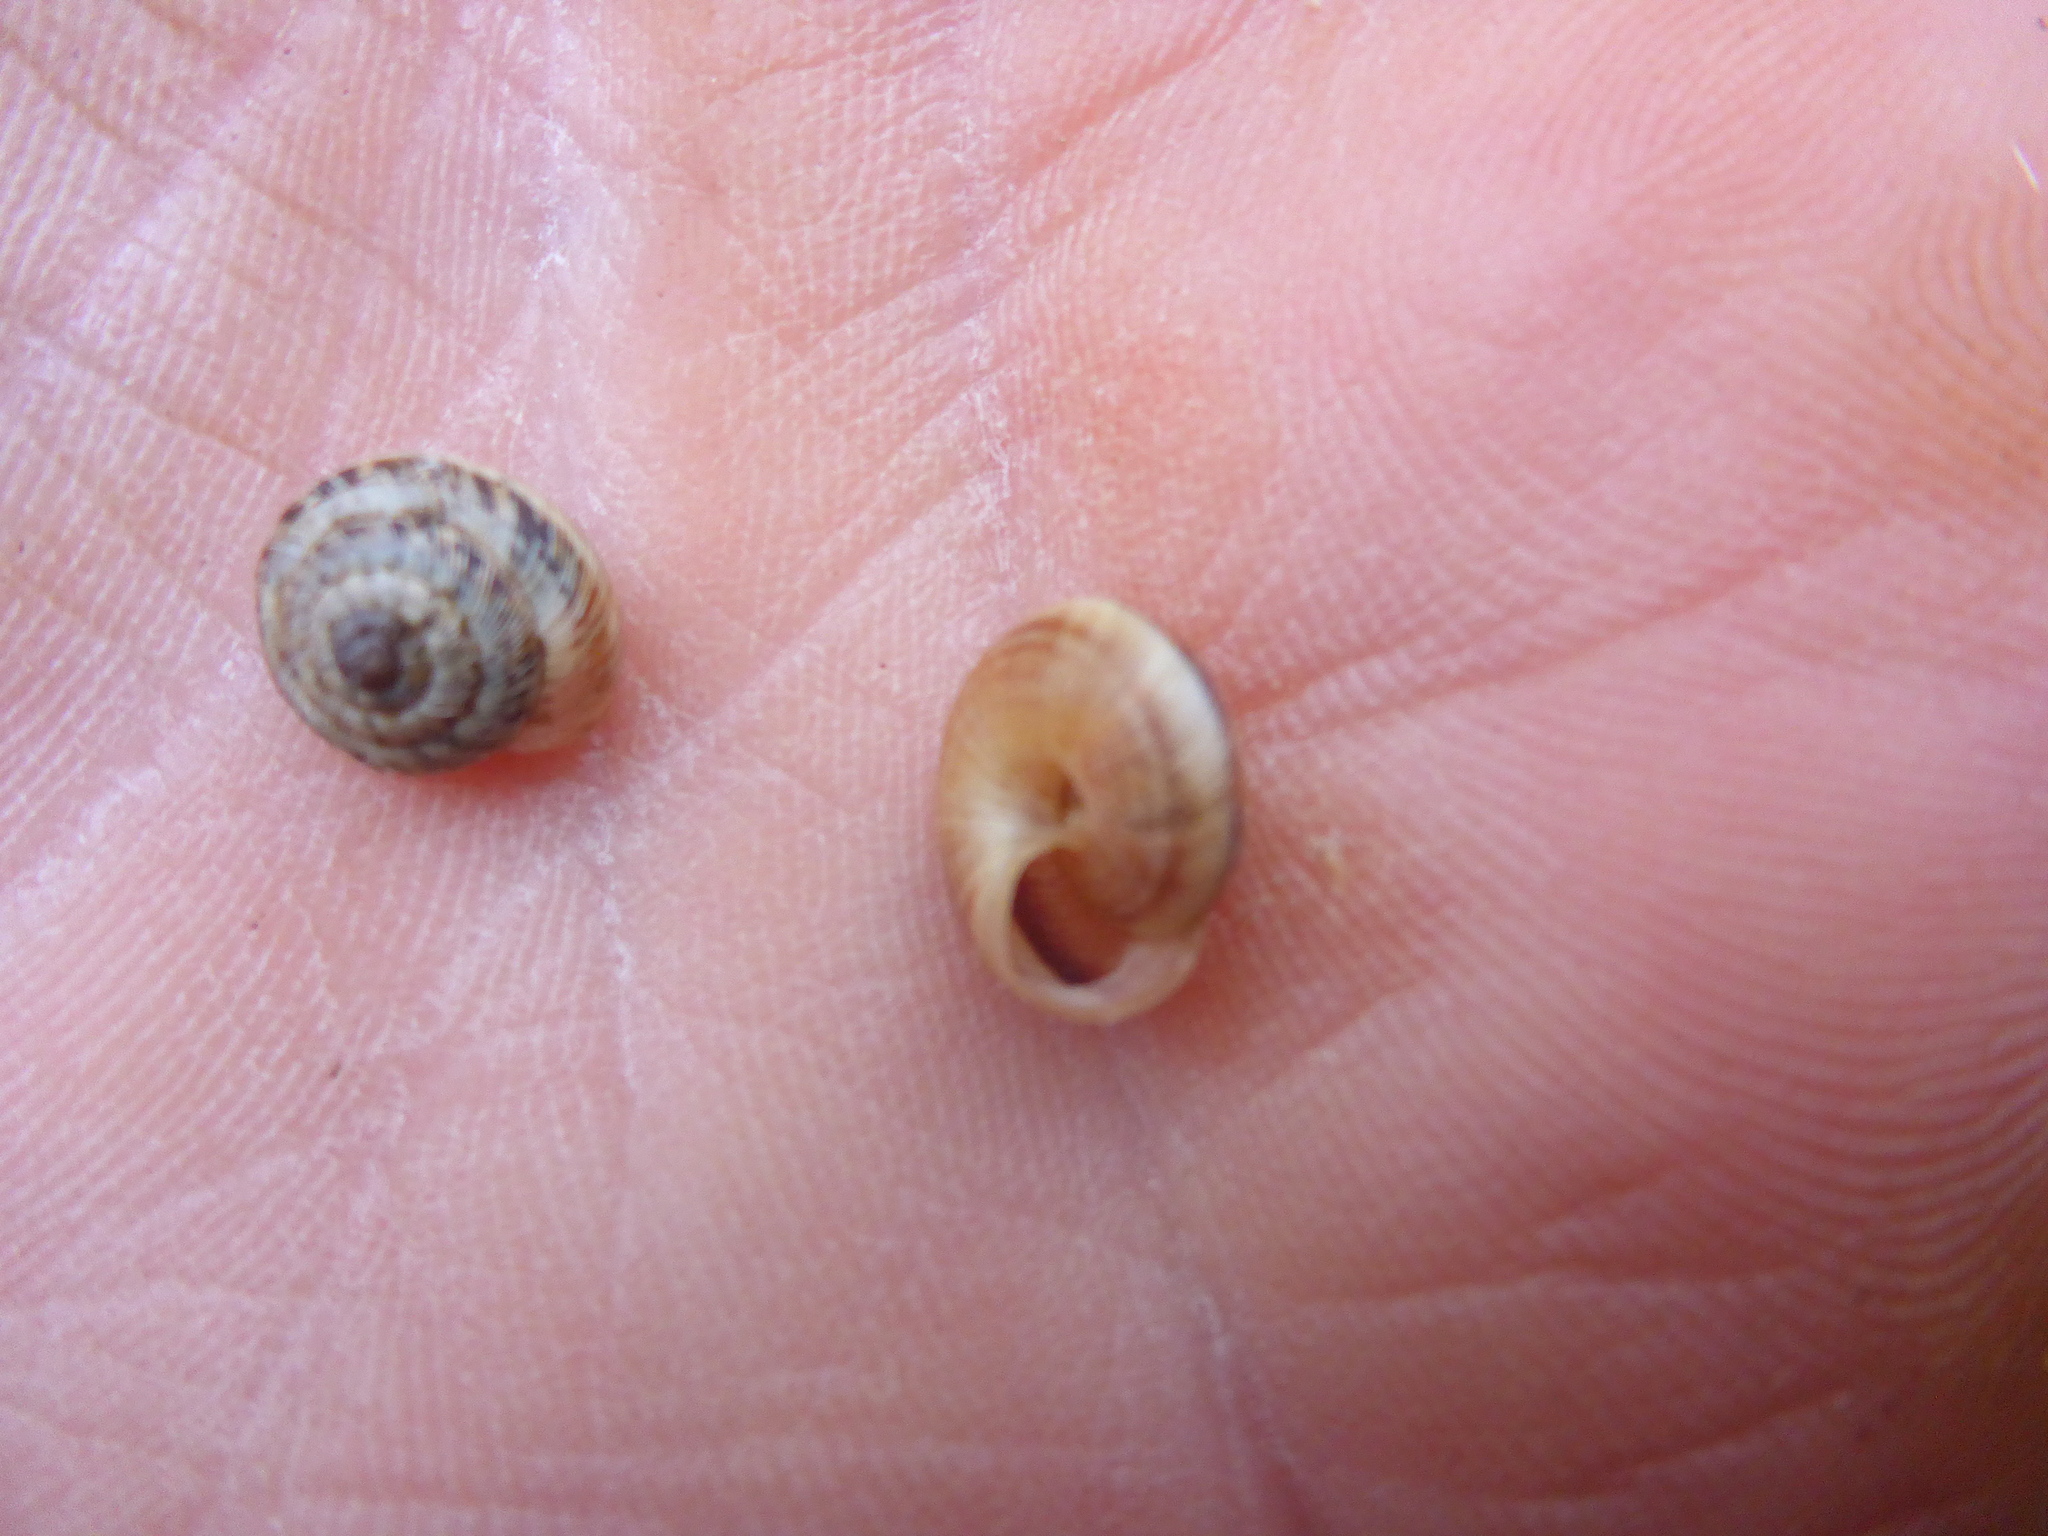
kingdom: Animalia
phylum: Mollusca
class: Gastropoda
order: Stylommatophora
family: Geomitridae
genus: Xeroplexa
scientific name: Xeroplexa intersecta
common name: Wrinkled snail
